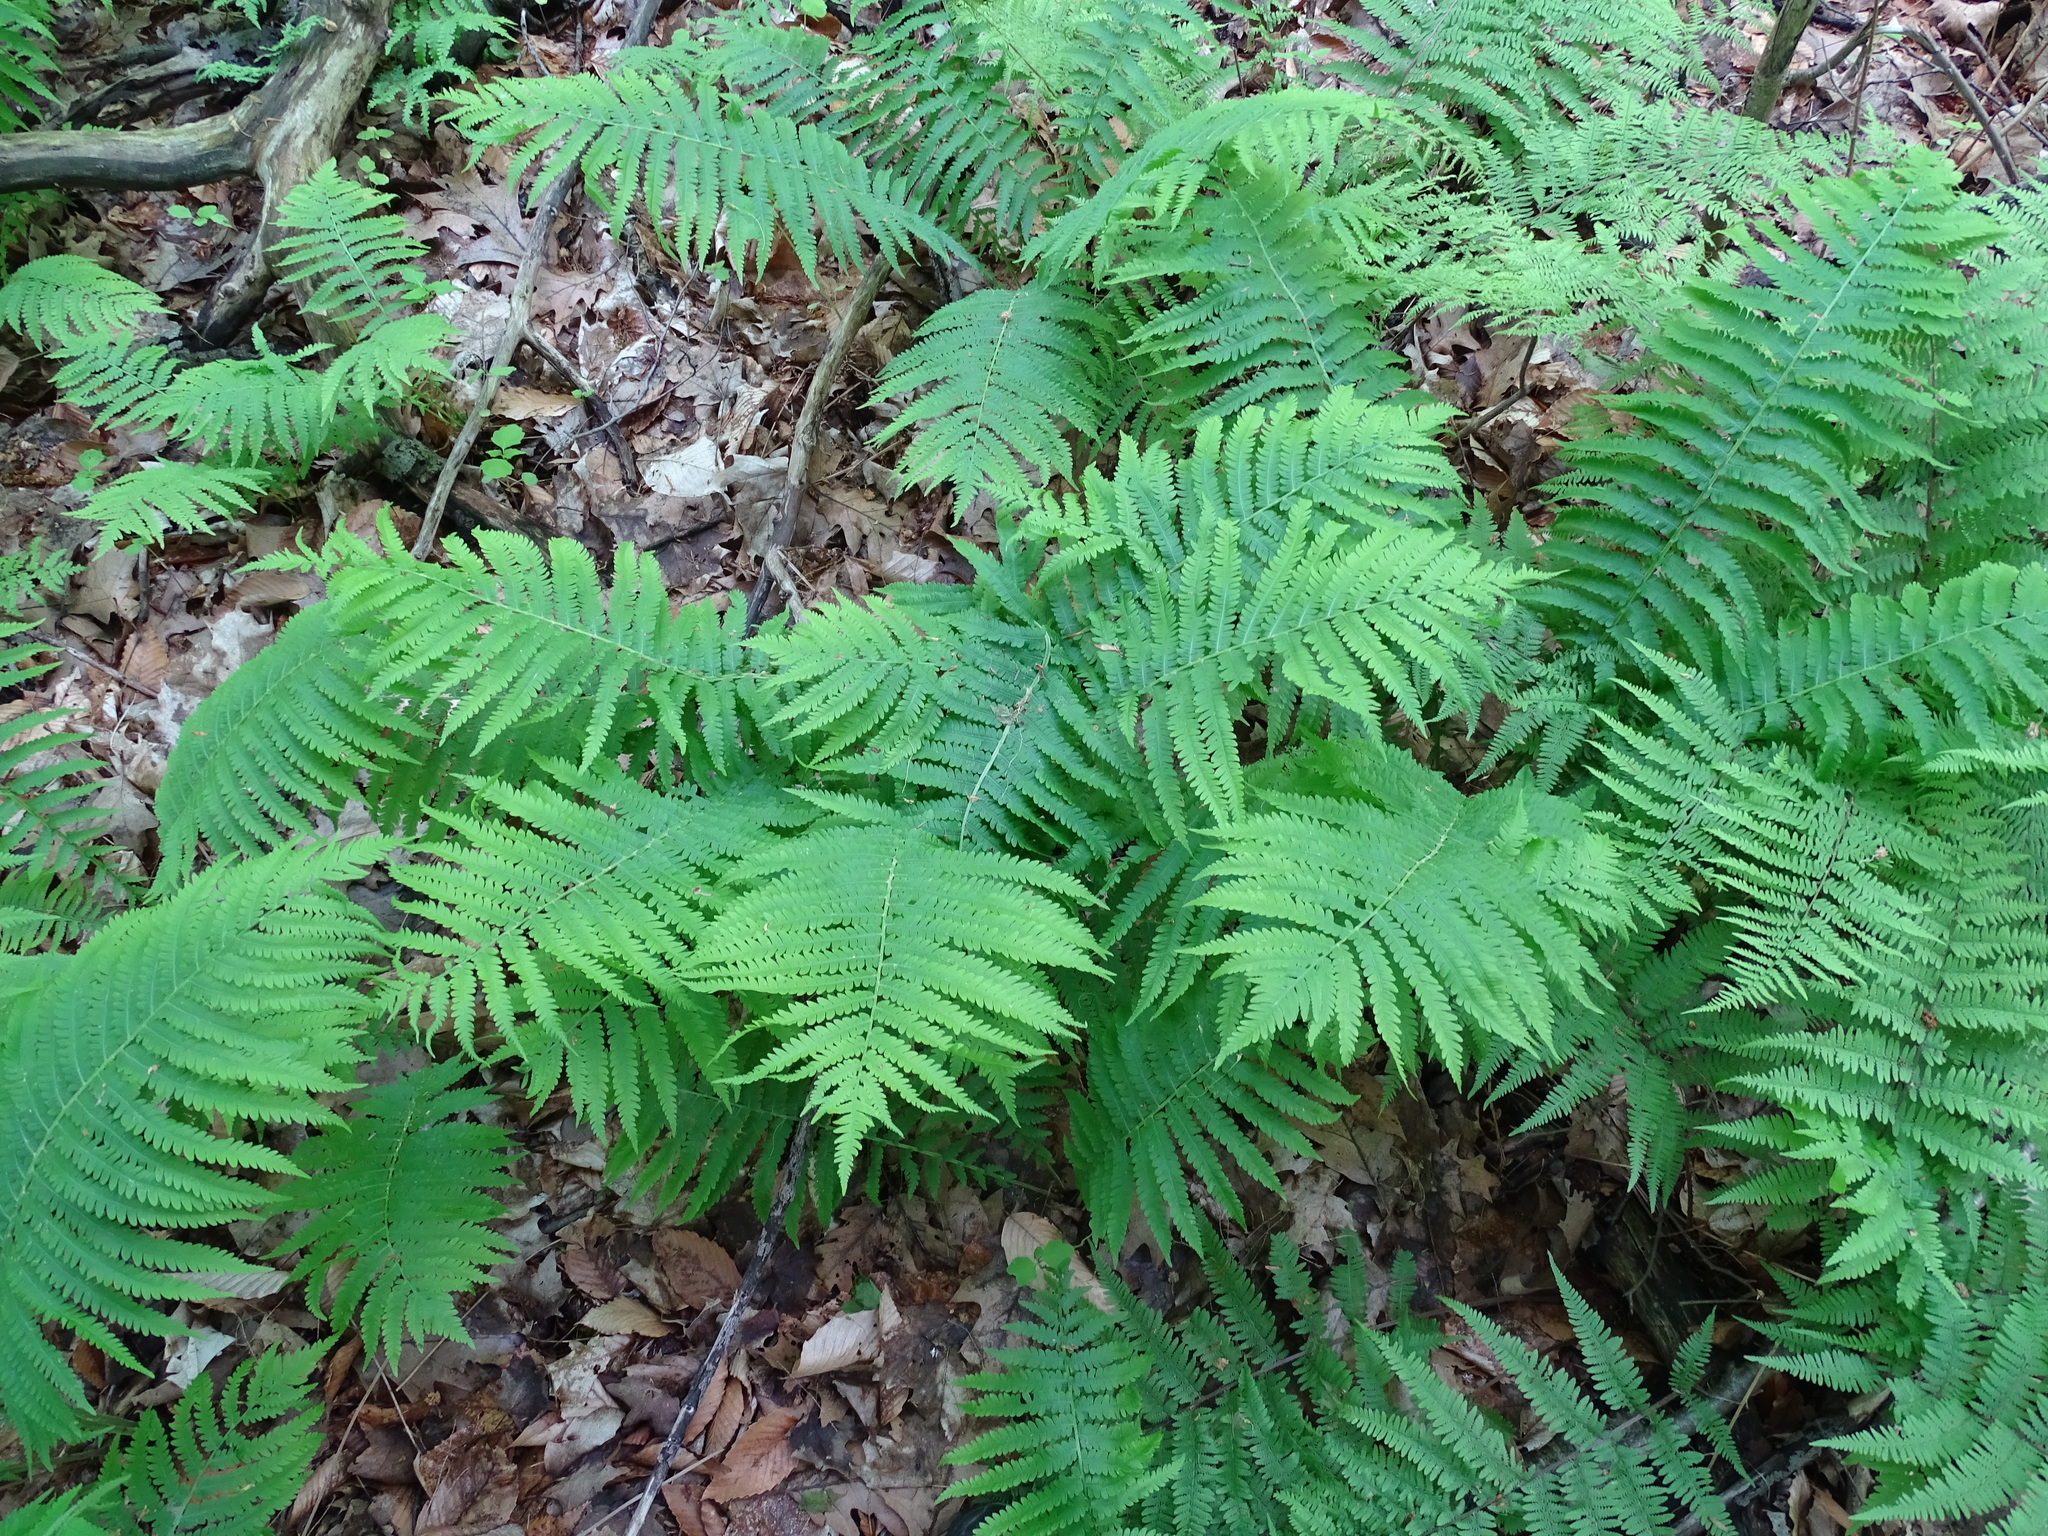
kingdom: Plantae
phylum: Tracheophyta
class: Polypodiopsida
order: Polypodiales
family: Onocleaceae
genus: Matteuccia
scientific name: Matteuccia struthiopteris
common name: Ostrich fern
